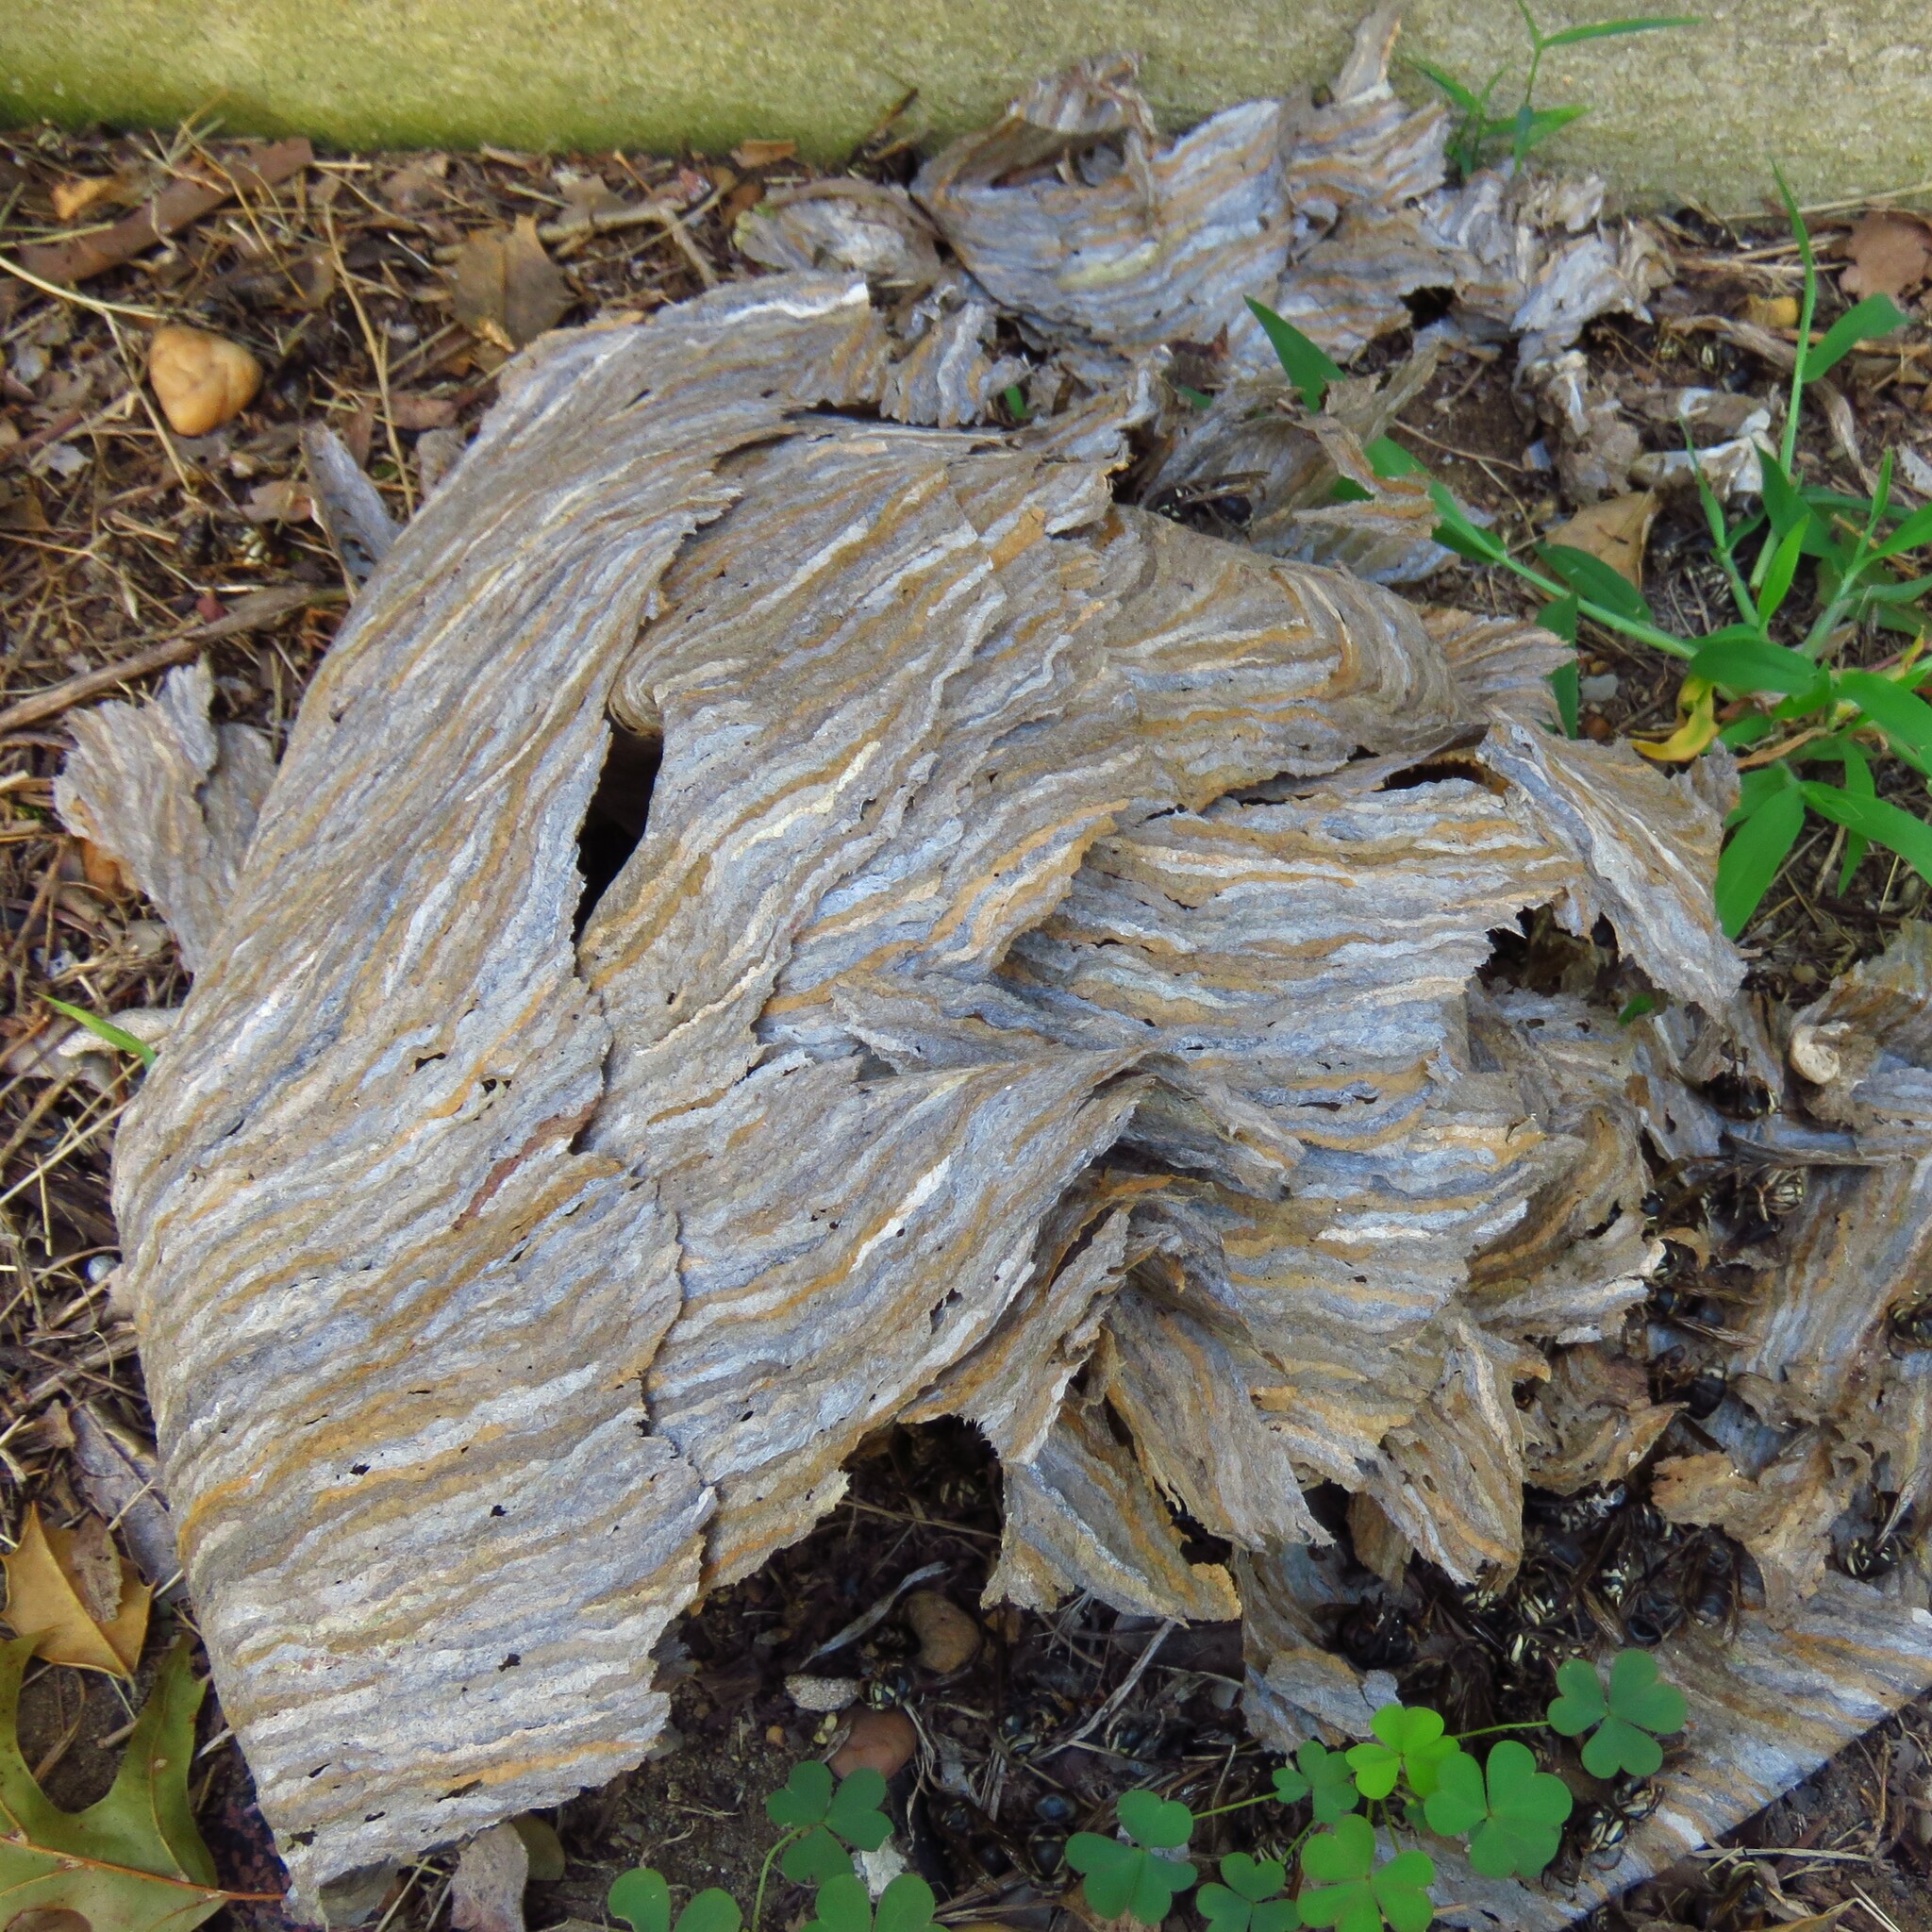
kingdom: Animalia
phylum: Arthropoda
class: Insecta
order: Hymenoptera
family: Vespidae
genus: Dolichovespula
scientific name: Dolichovespula maculata
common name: Bald-faced hornet
